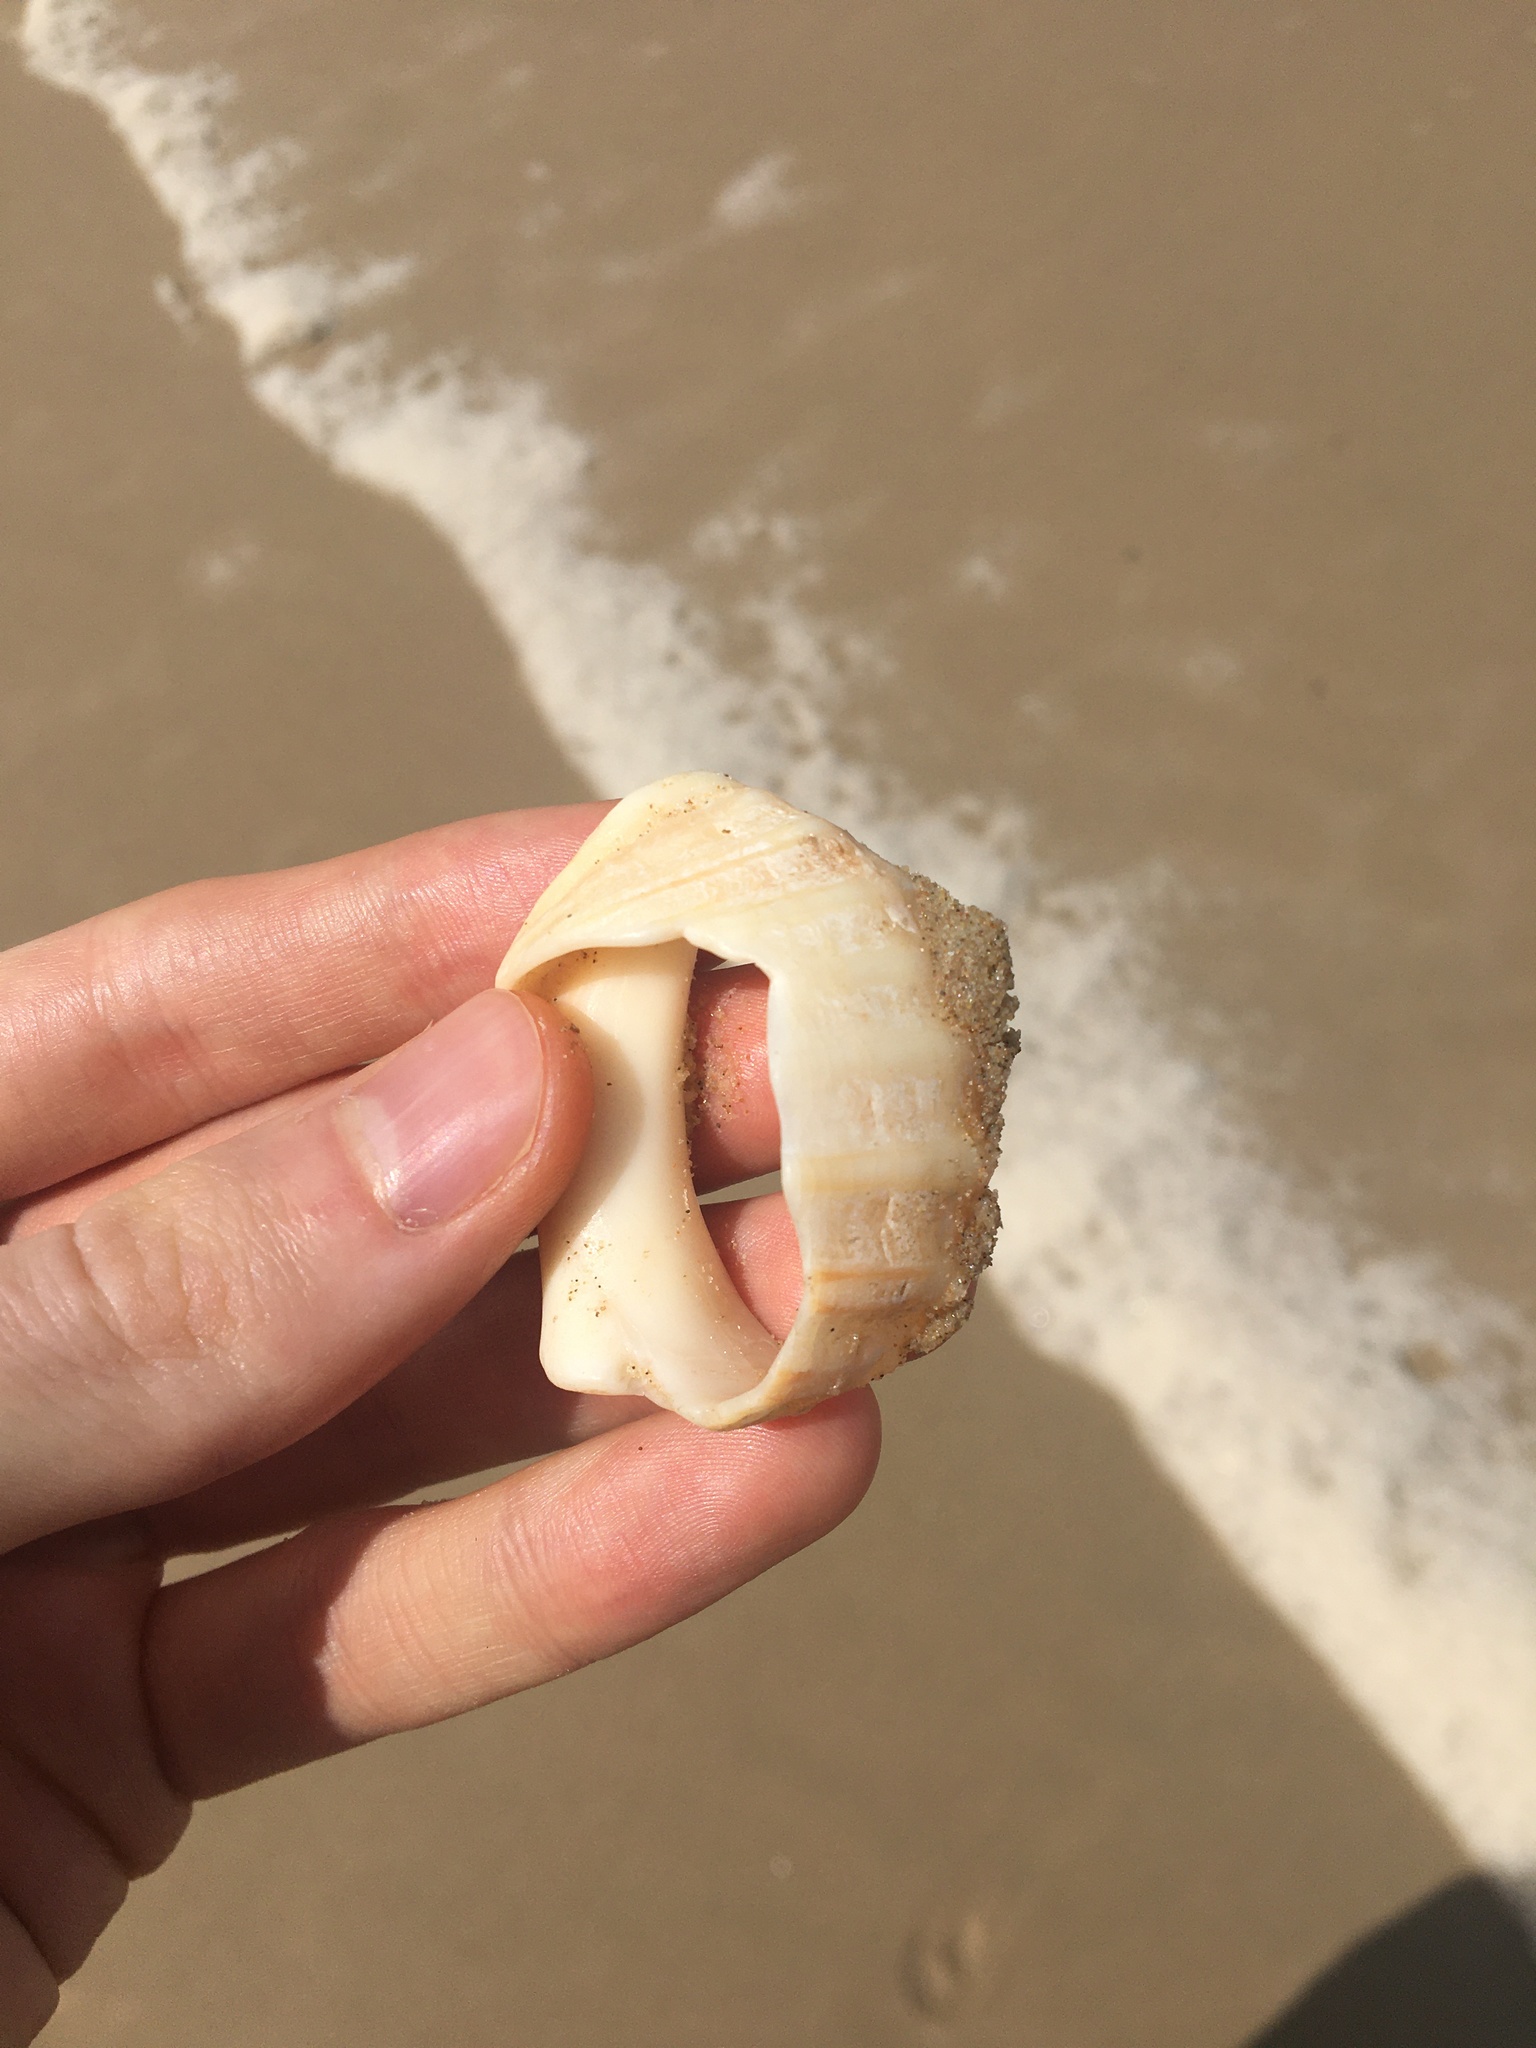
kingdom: Animalia
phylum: Mollusca
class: Gastropoda
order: Neogastropoda
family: Muricidae
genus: Dicathais
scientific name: Dicathais orbita
